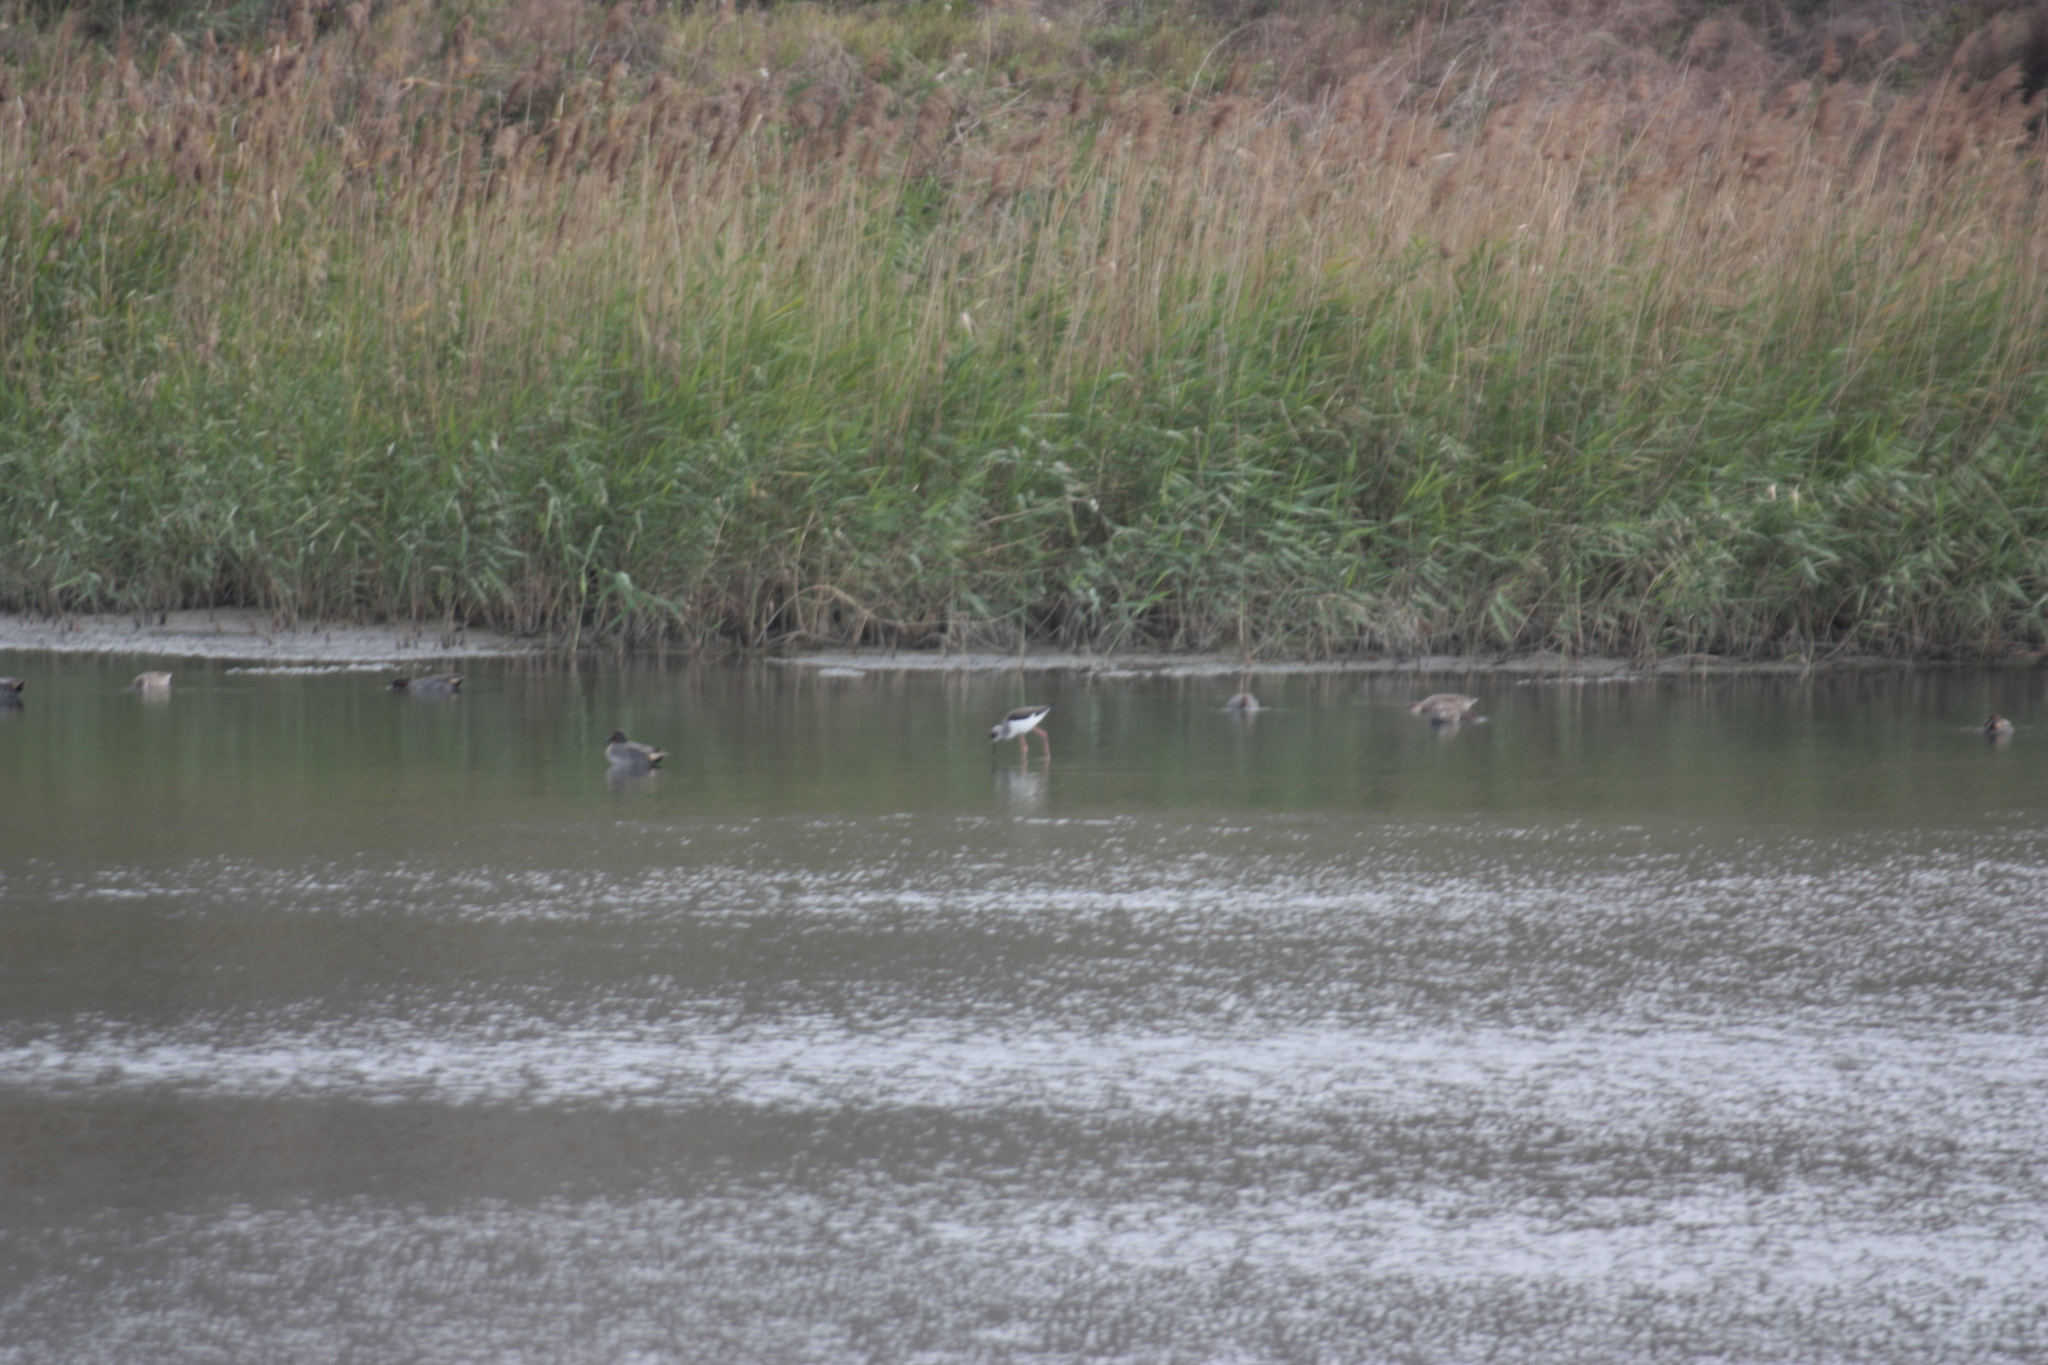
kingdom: Animalia
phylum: Chordata
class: Aves
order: Charadriiformes
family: Recurvirostridae
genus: Himantopus
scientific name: Himantopus himantopus
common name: Black-winged stilt
